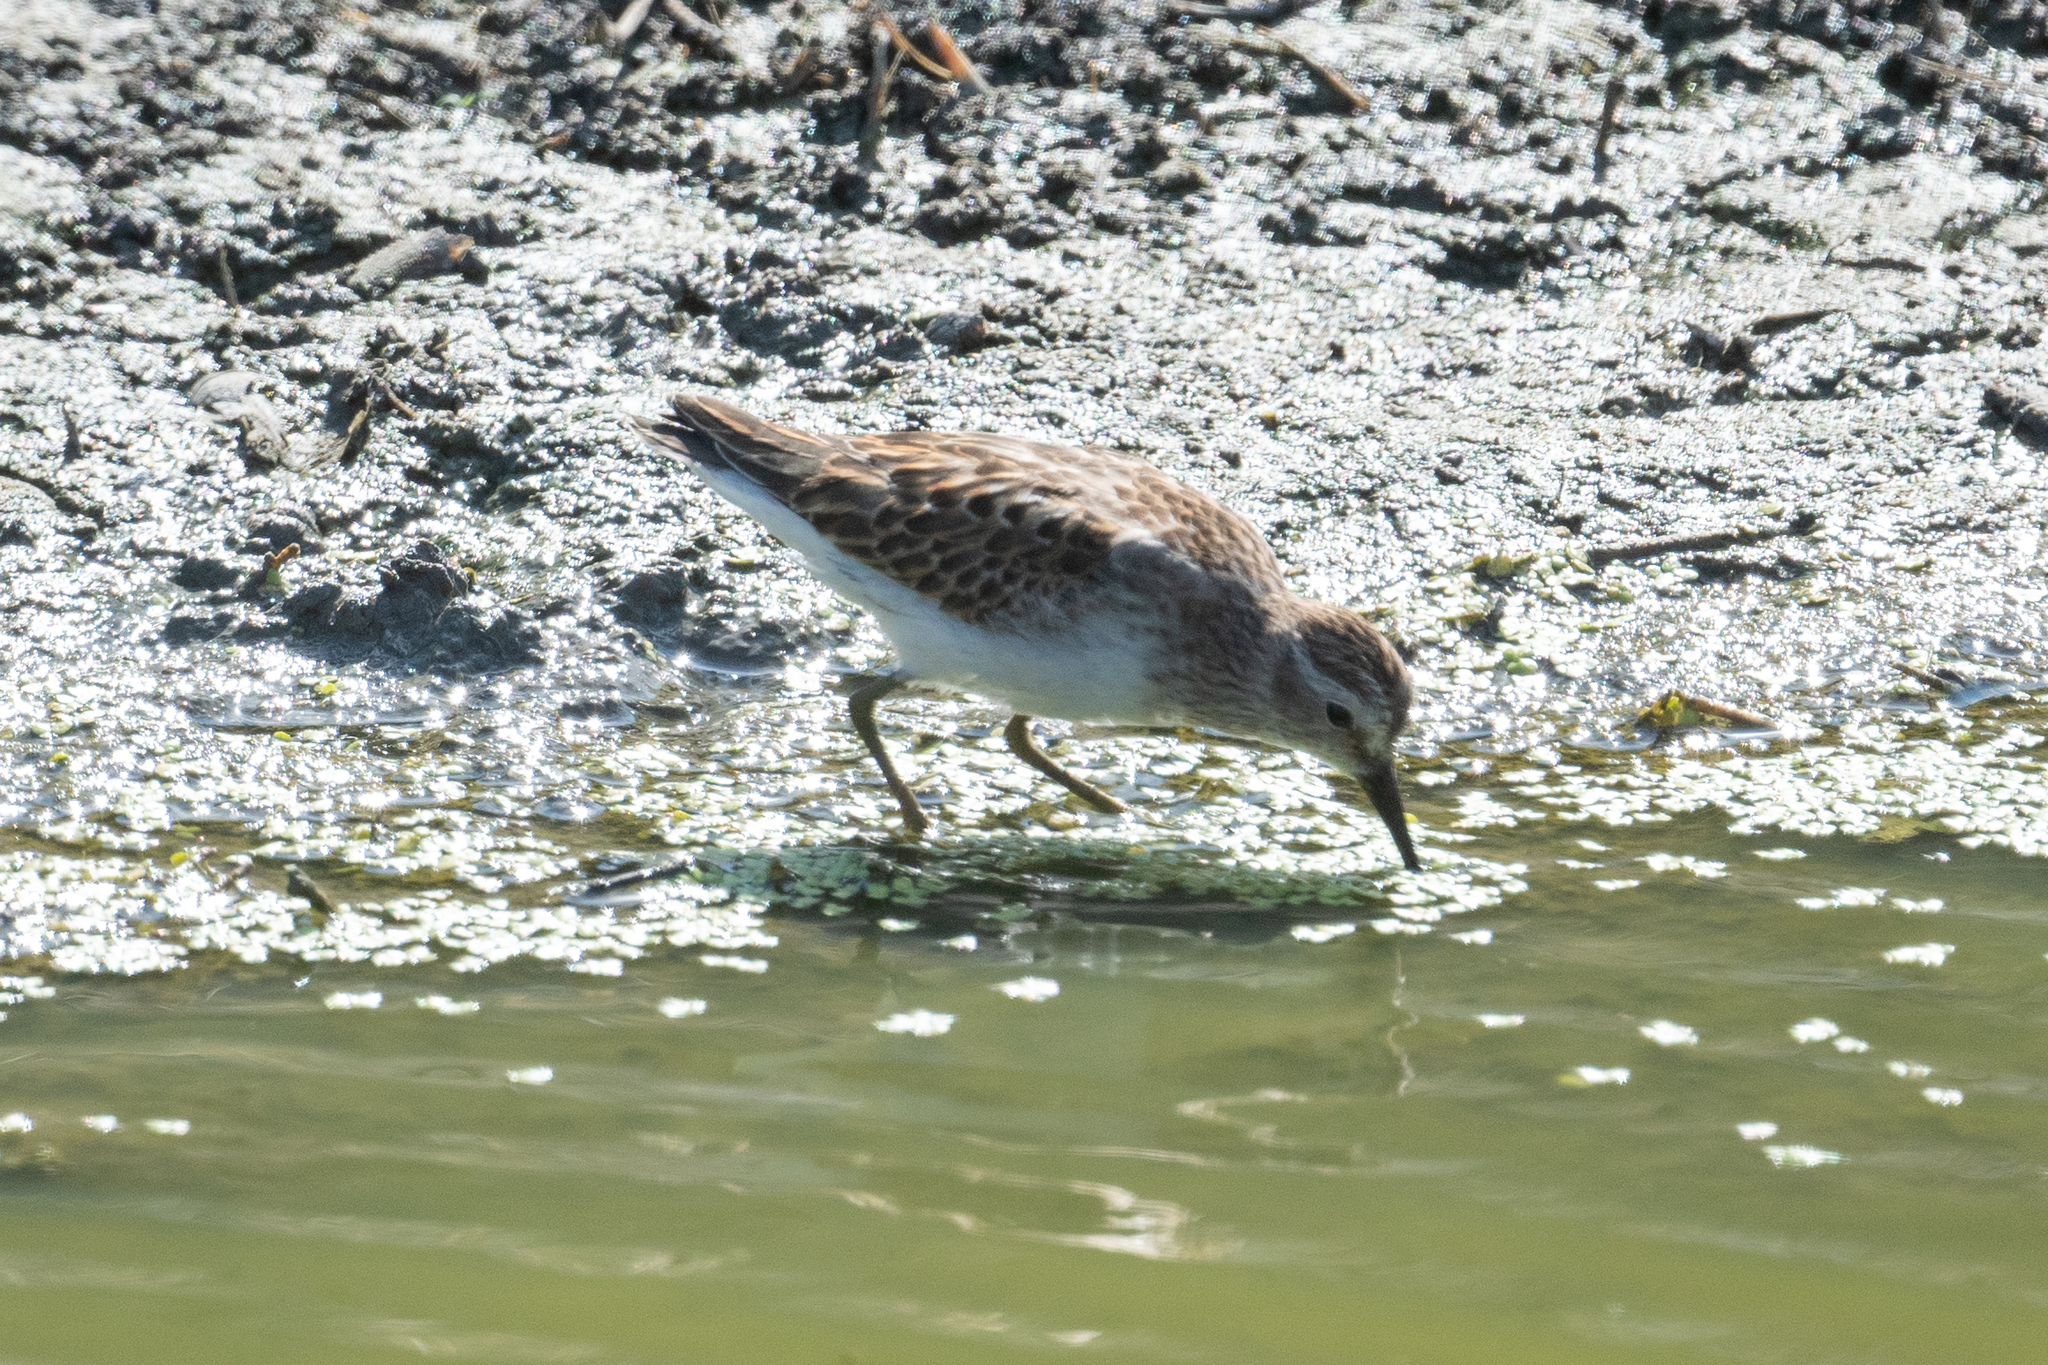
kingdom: Animalia
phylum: Chordata
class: Aves
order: Charadriiformes
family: Scolopacidae
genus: Calidris
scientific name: Calidris minutilla
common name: Least sandpiper
